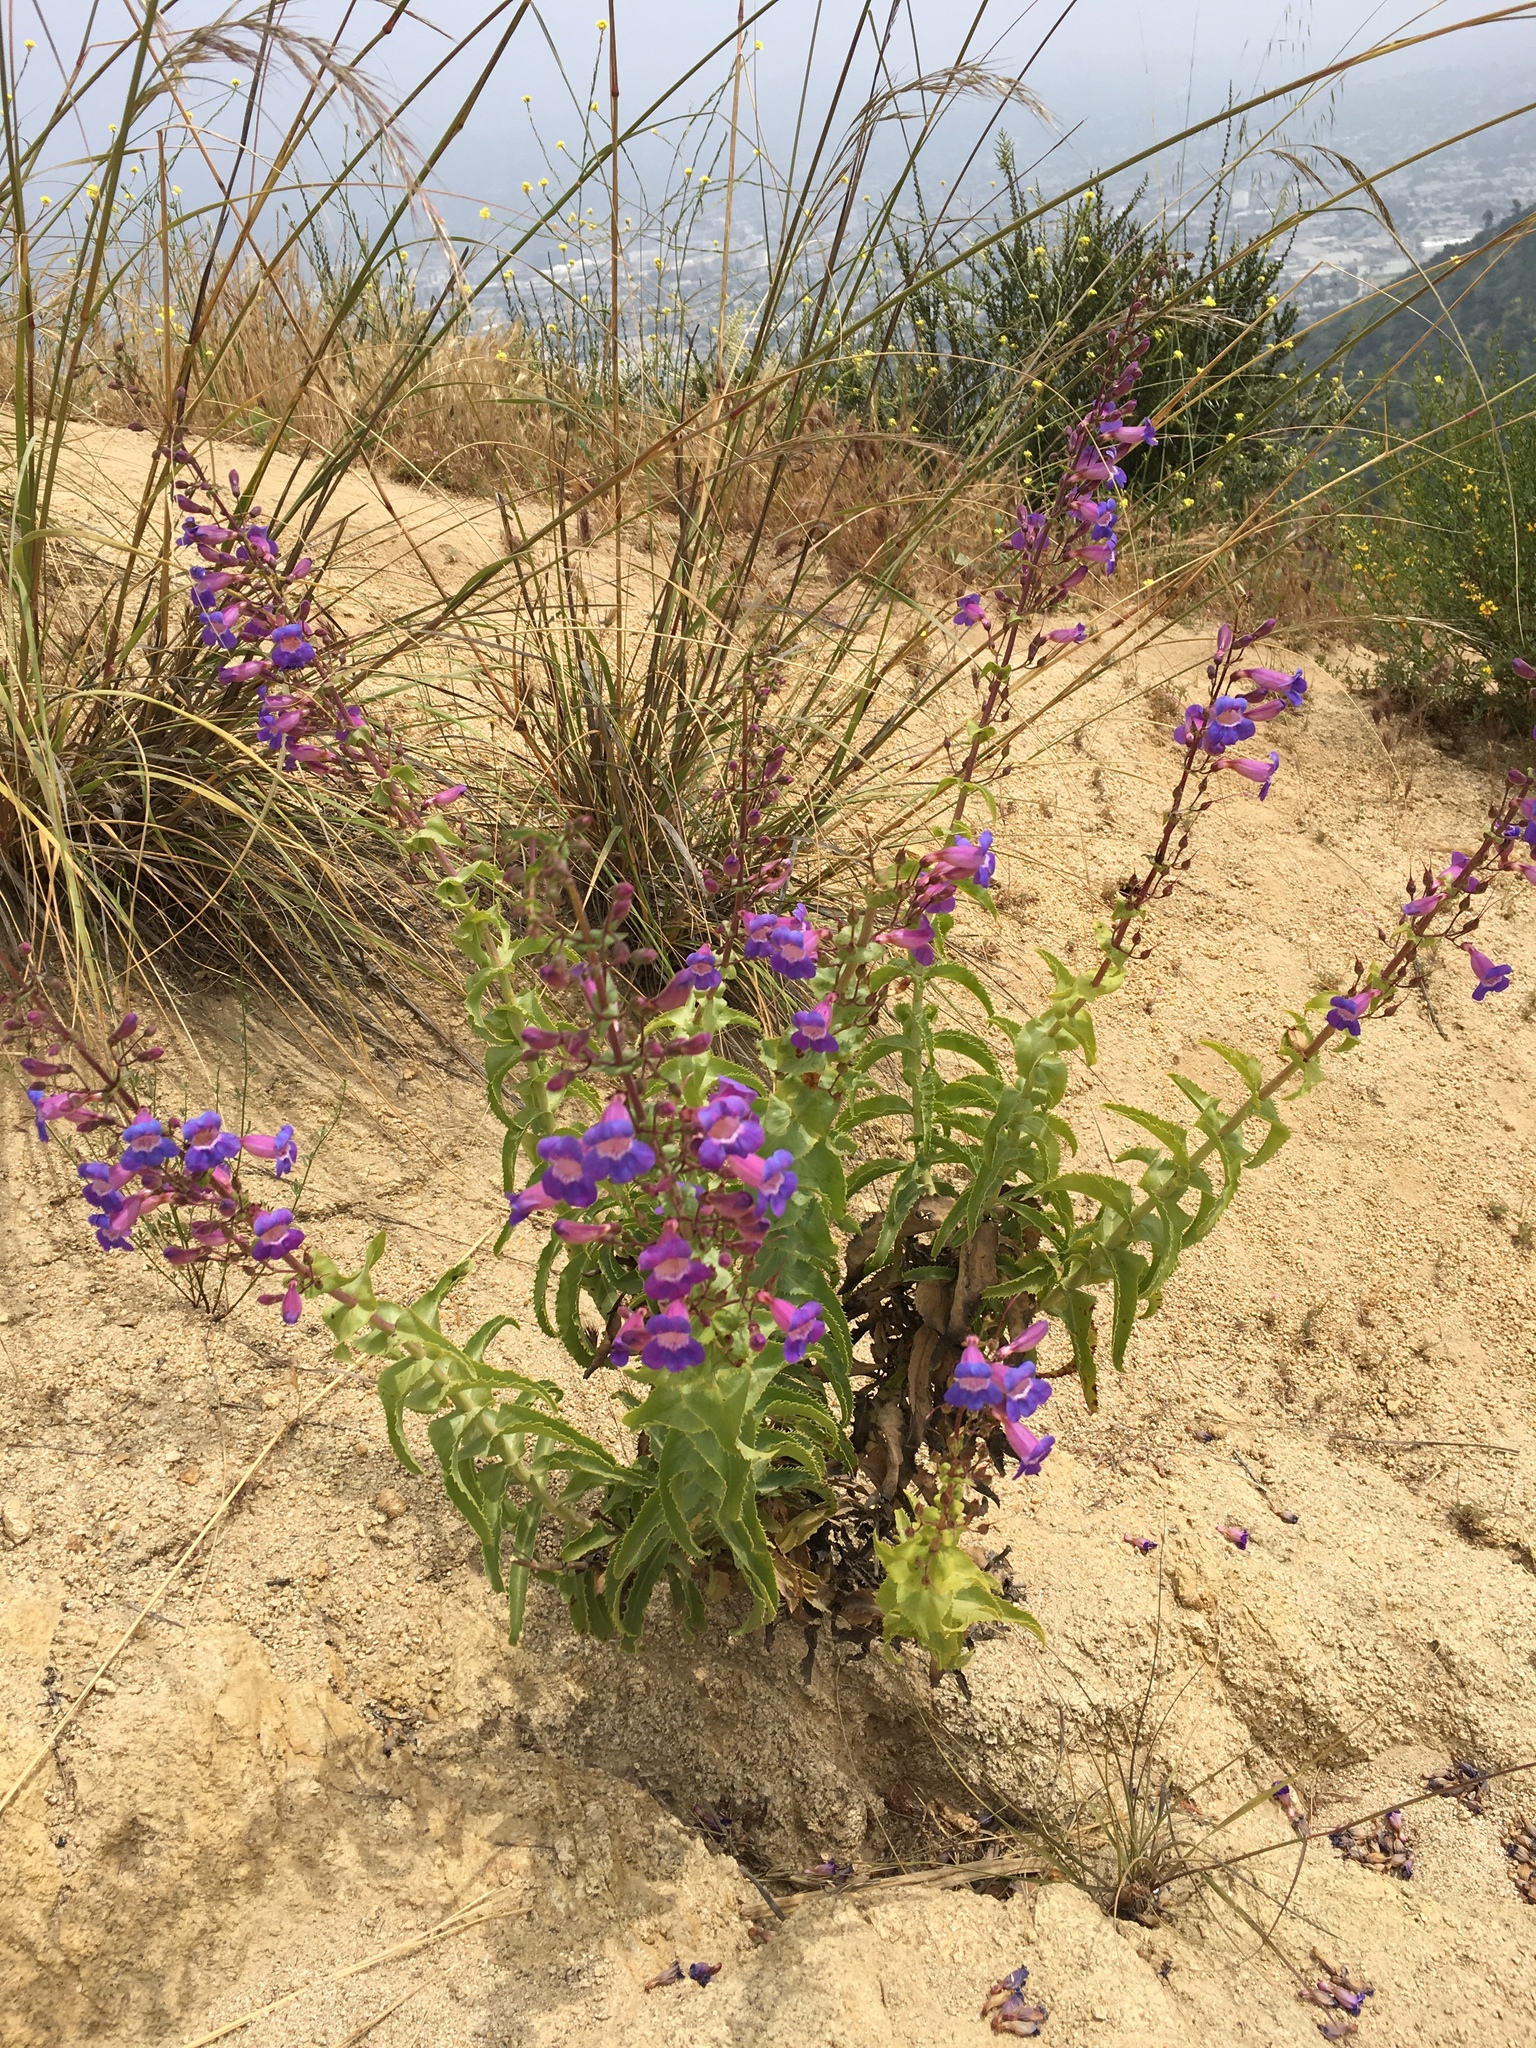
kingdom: Plantae
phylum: Tracheophyta
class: Magnoliopsida
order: Lamiales
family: Plantaginaceae
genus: Penstemon
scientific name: Penstemon spectabilis
